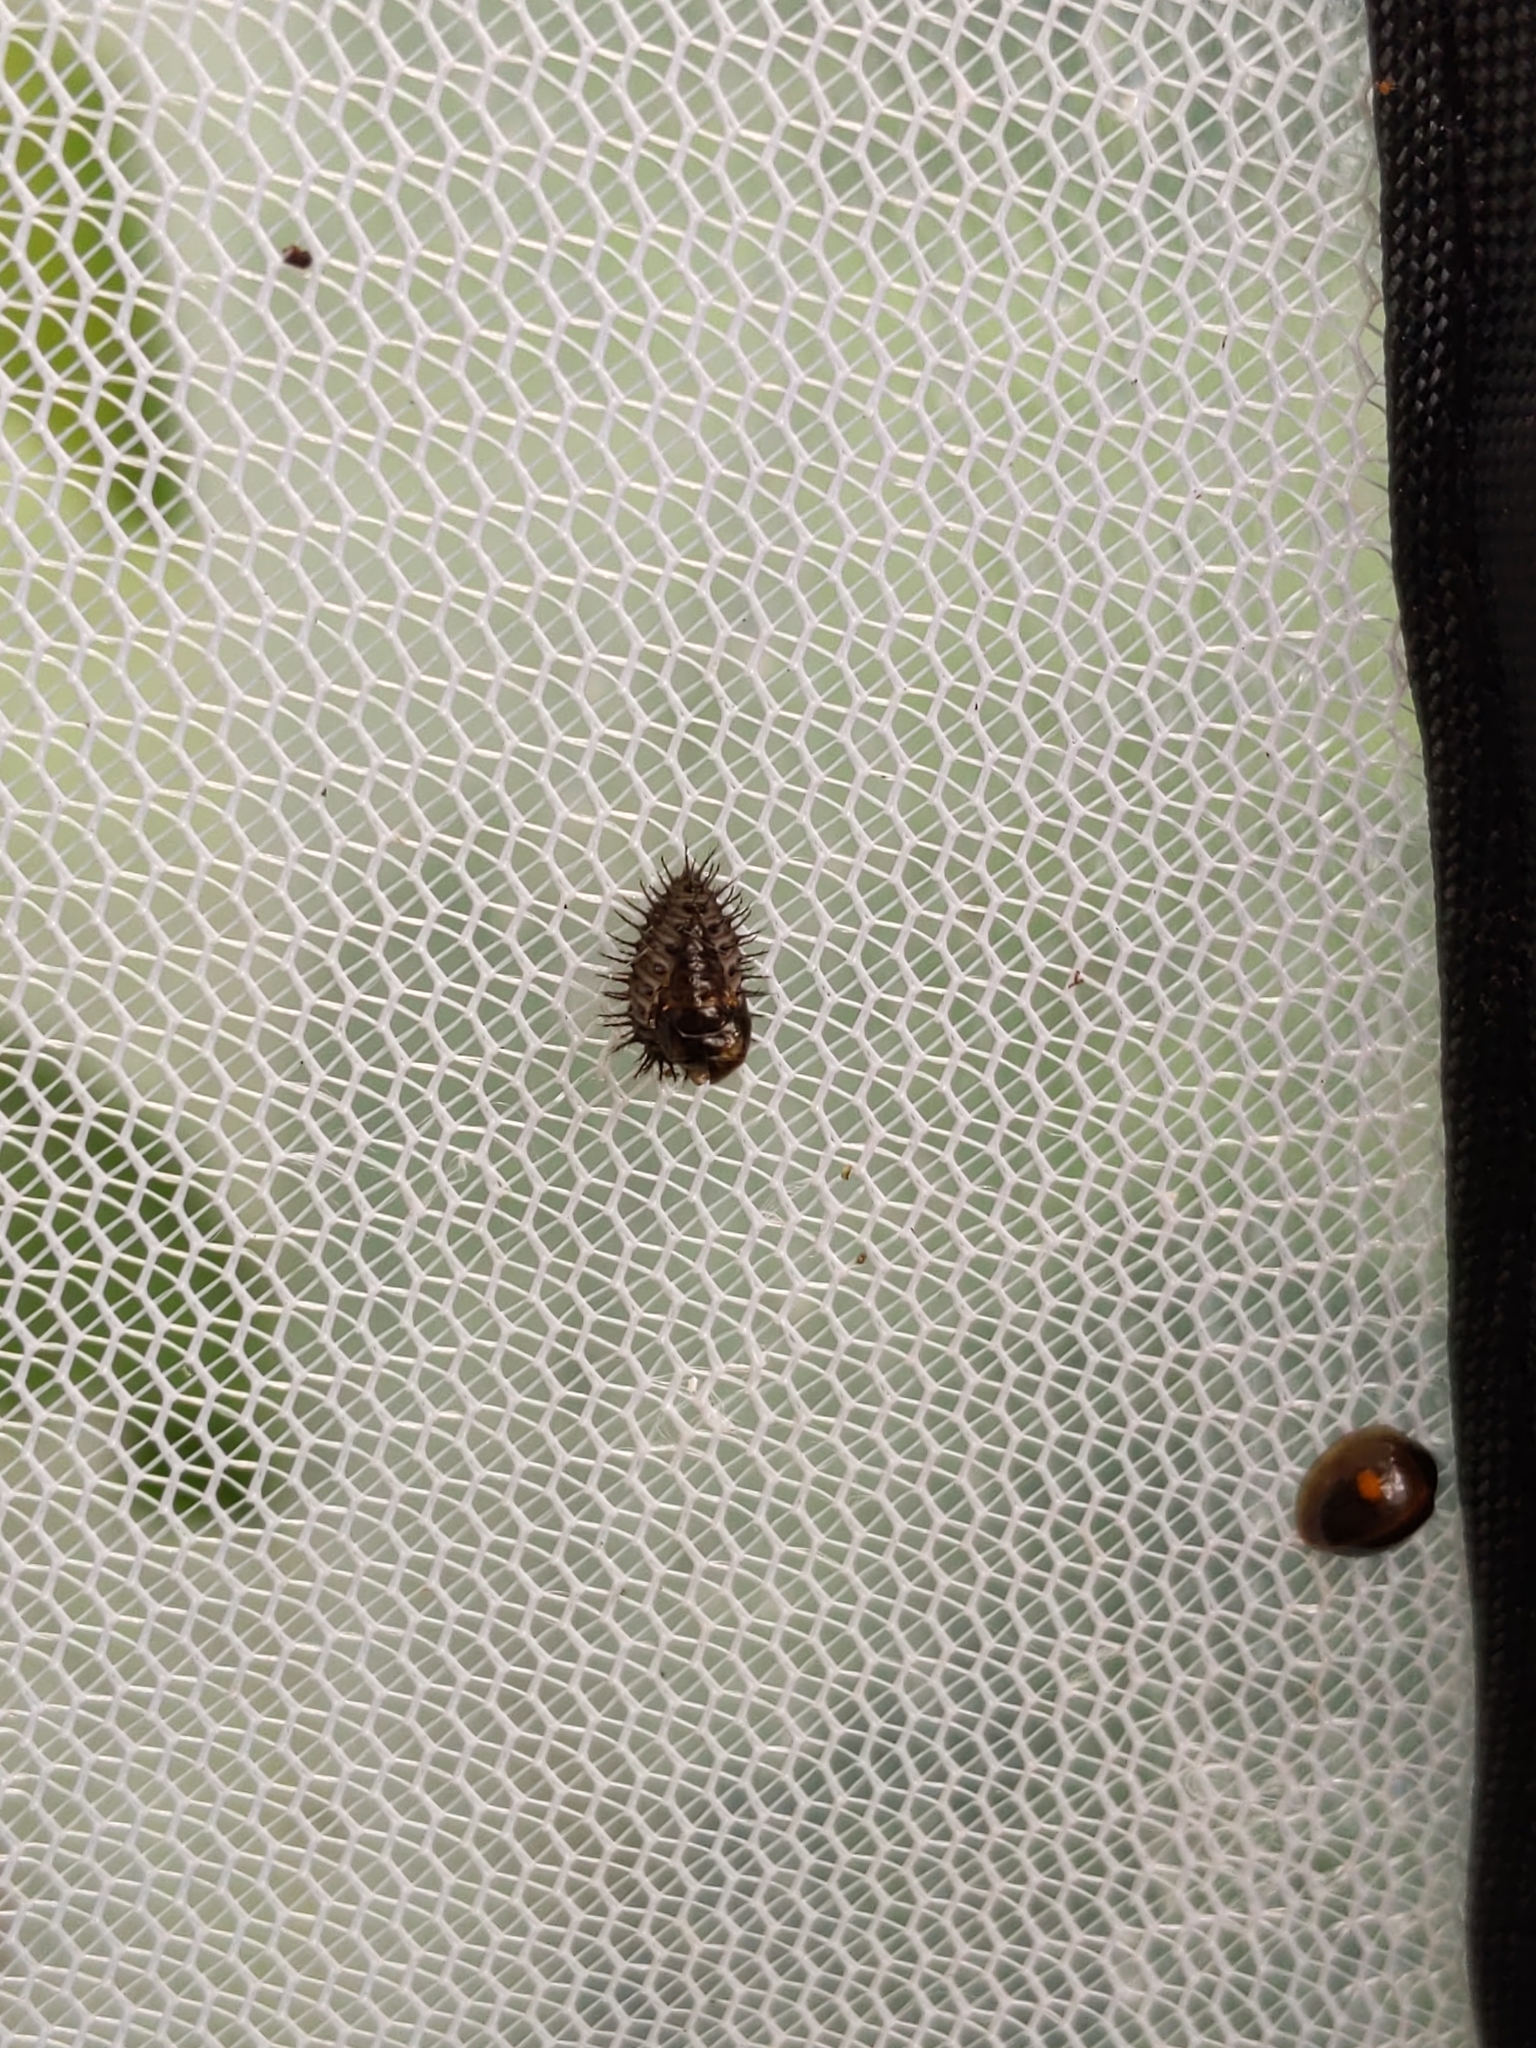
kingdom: Animalia
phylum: Arthropoda
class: Insecta
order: Coleoptera
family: Coccinellidae
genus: Chilocorus
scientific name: Chilocorus stigma
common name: Twicestabbed lady beetle
